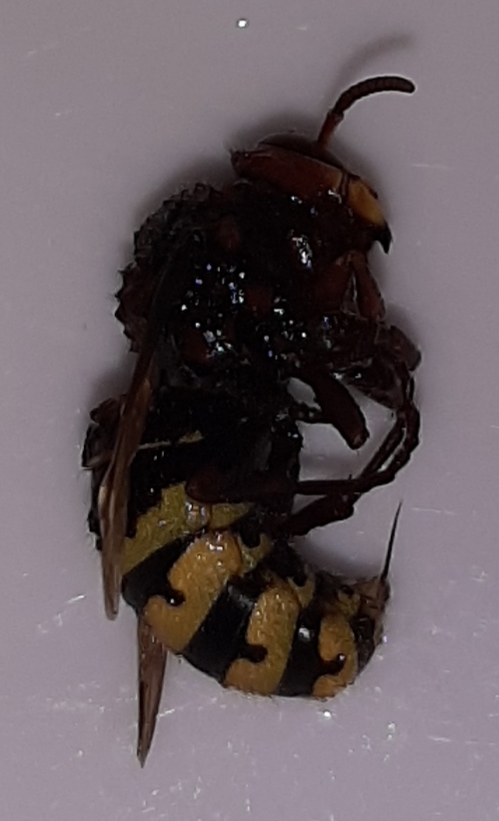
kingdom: Animalia
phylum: Arthropoda
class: Insecta
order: Hymenoptera
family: Vespidae
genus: Vespa
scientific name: Vespa crabro
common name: Hornet
